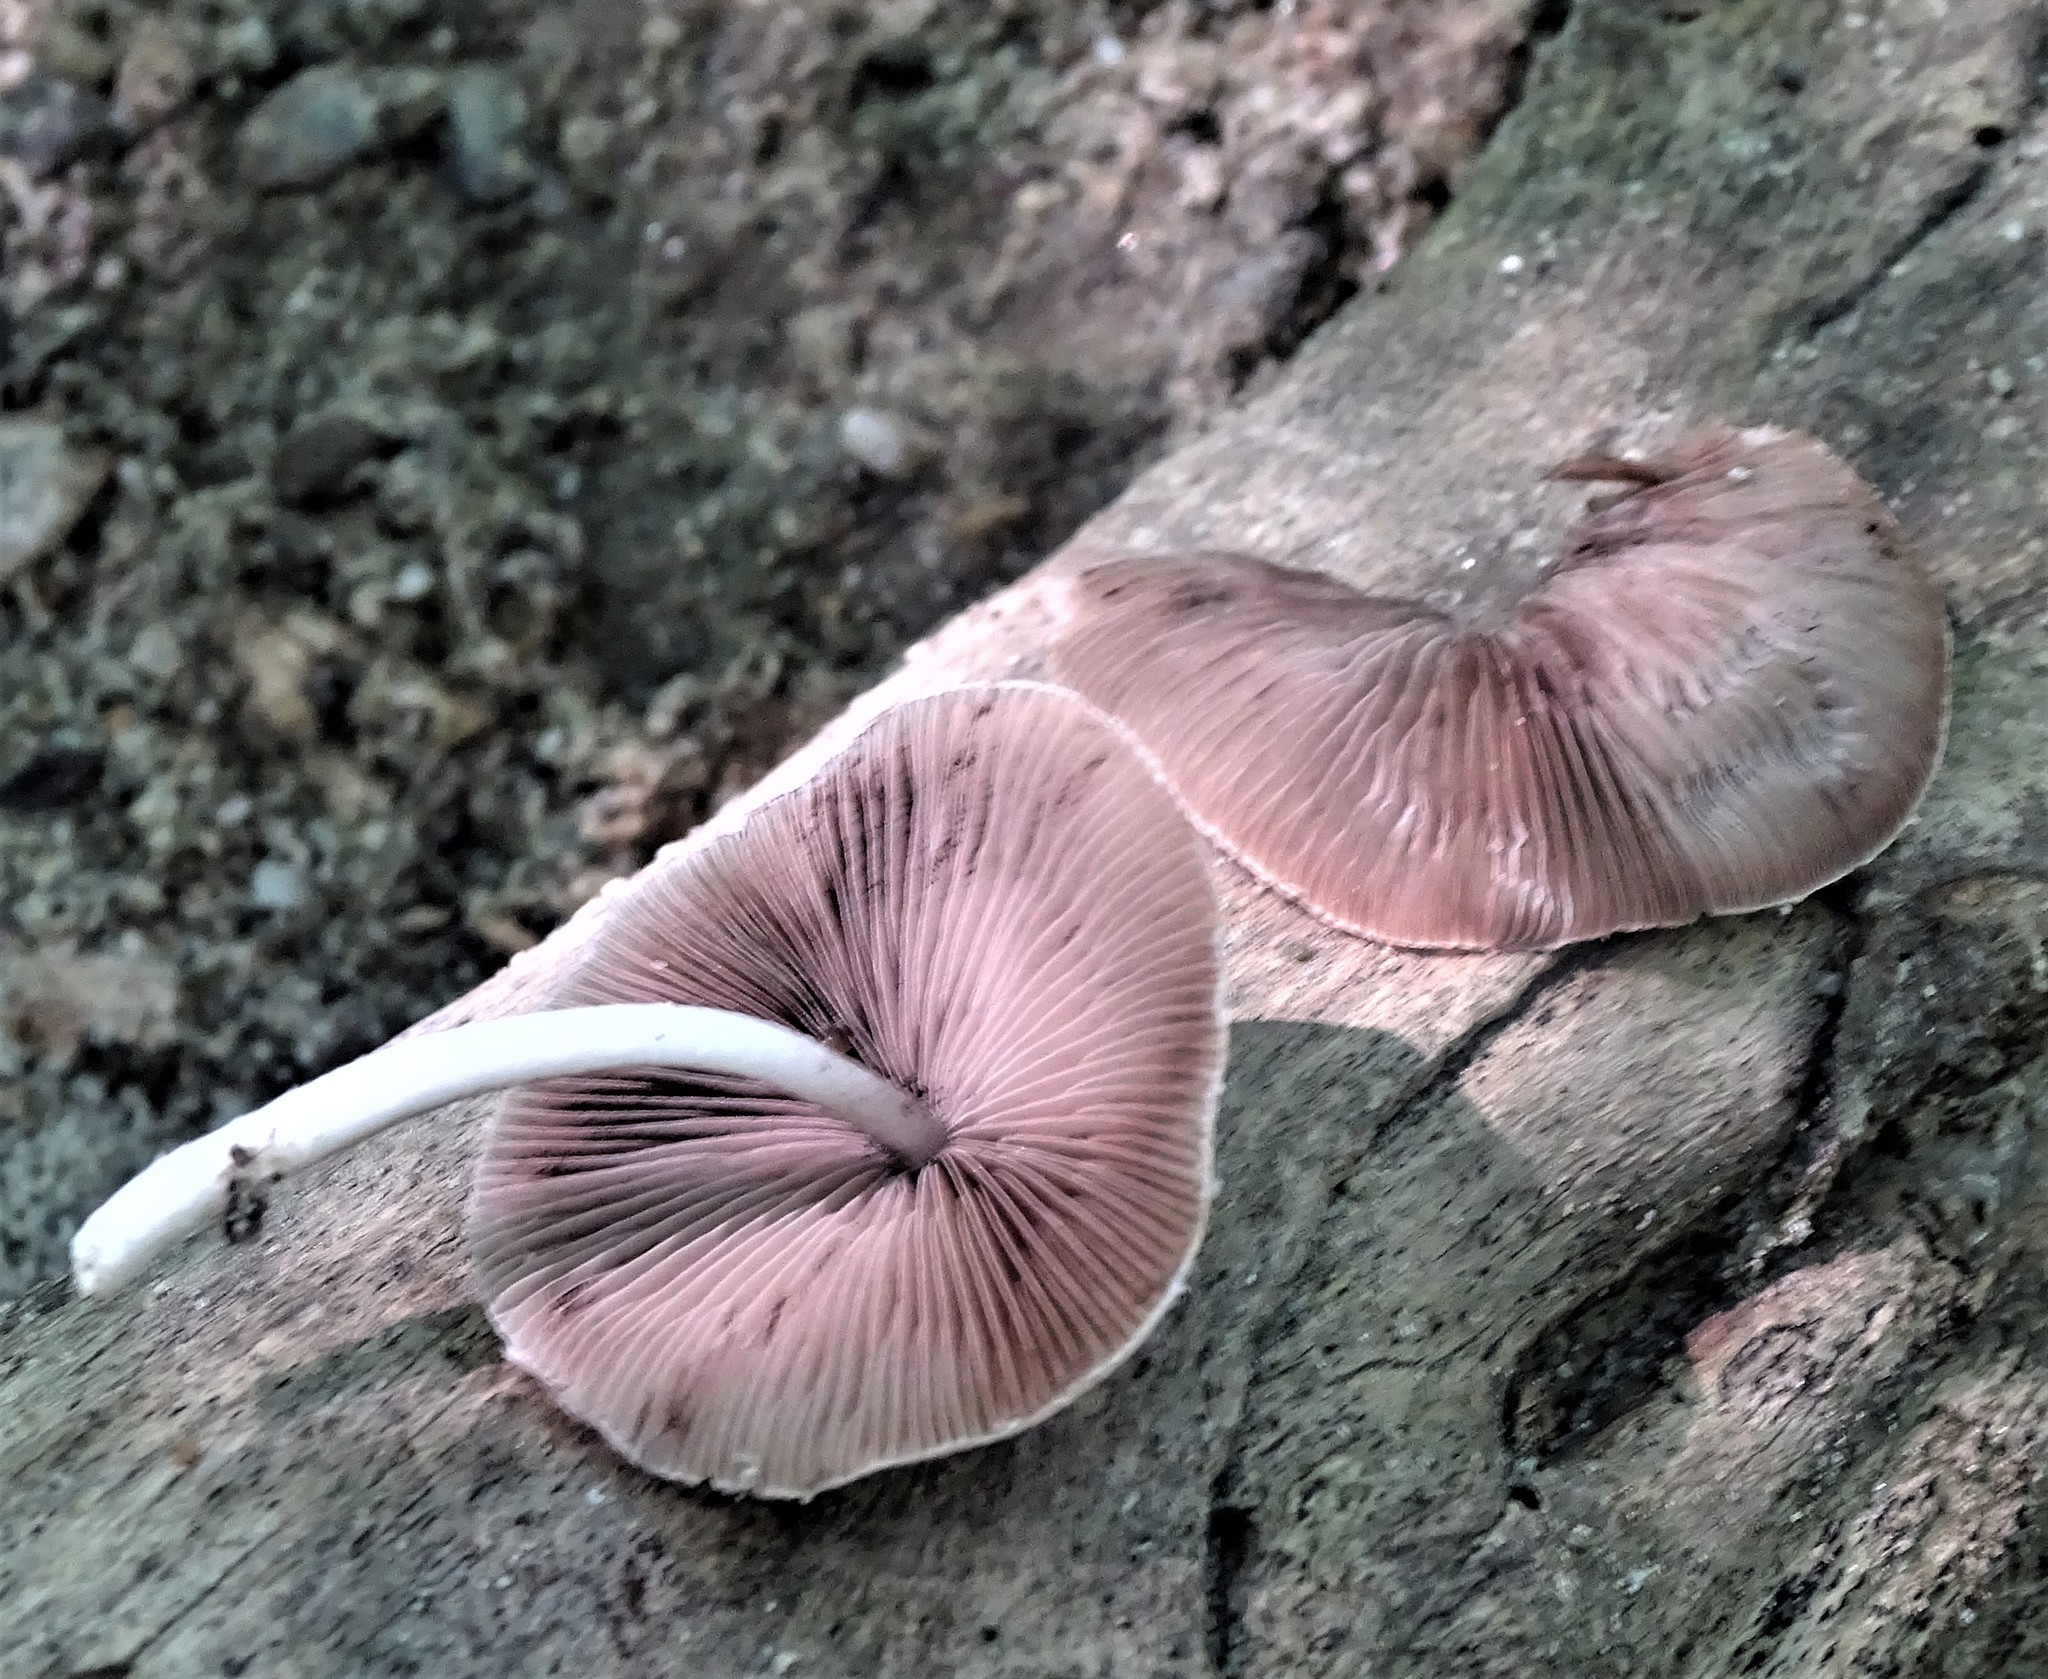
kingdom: Fungi
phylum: Basidiomycota
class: Agaricomycetes
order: Agaricales
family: Psathyrellaceae
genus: Candolleomyces
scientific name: Candolleomyces candolleanus
